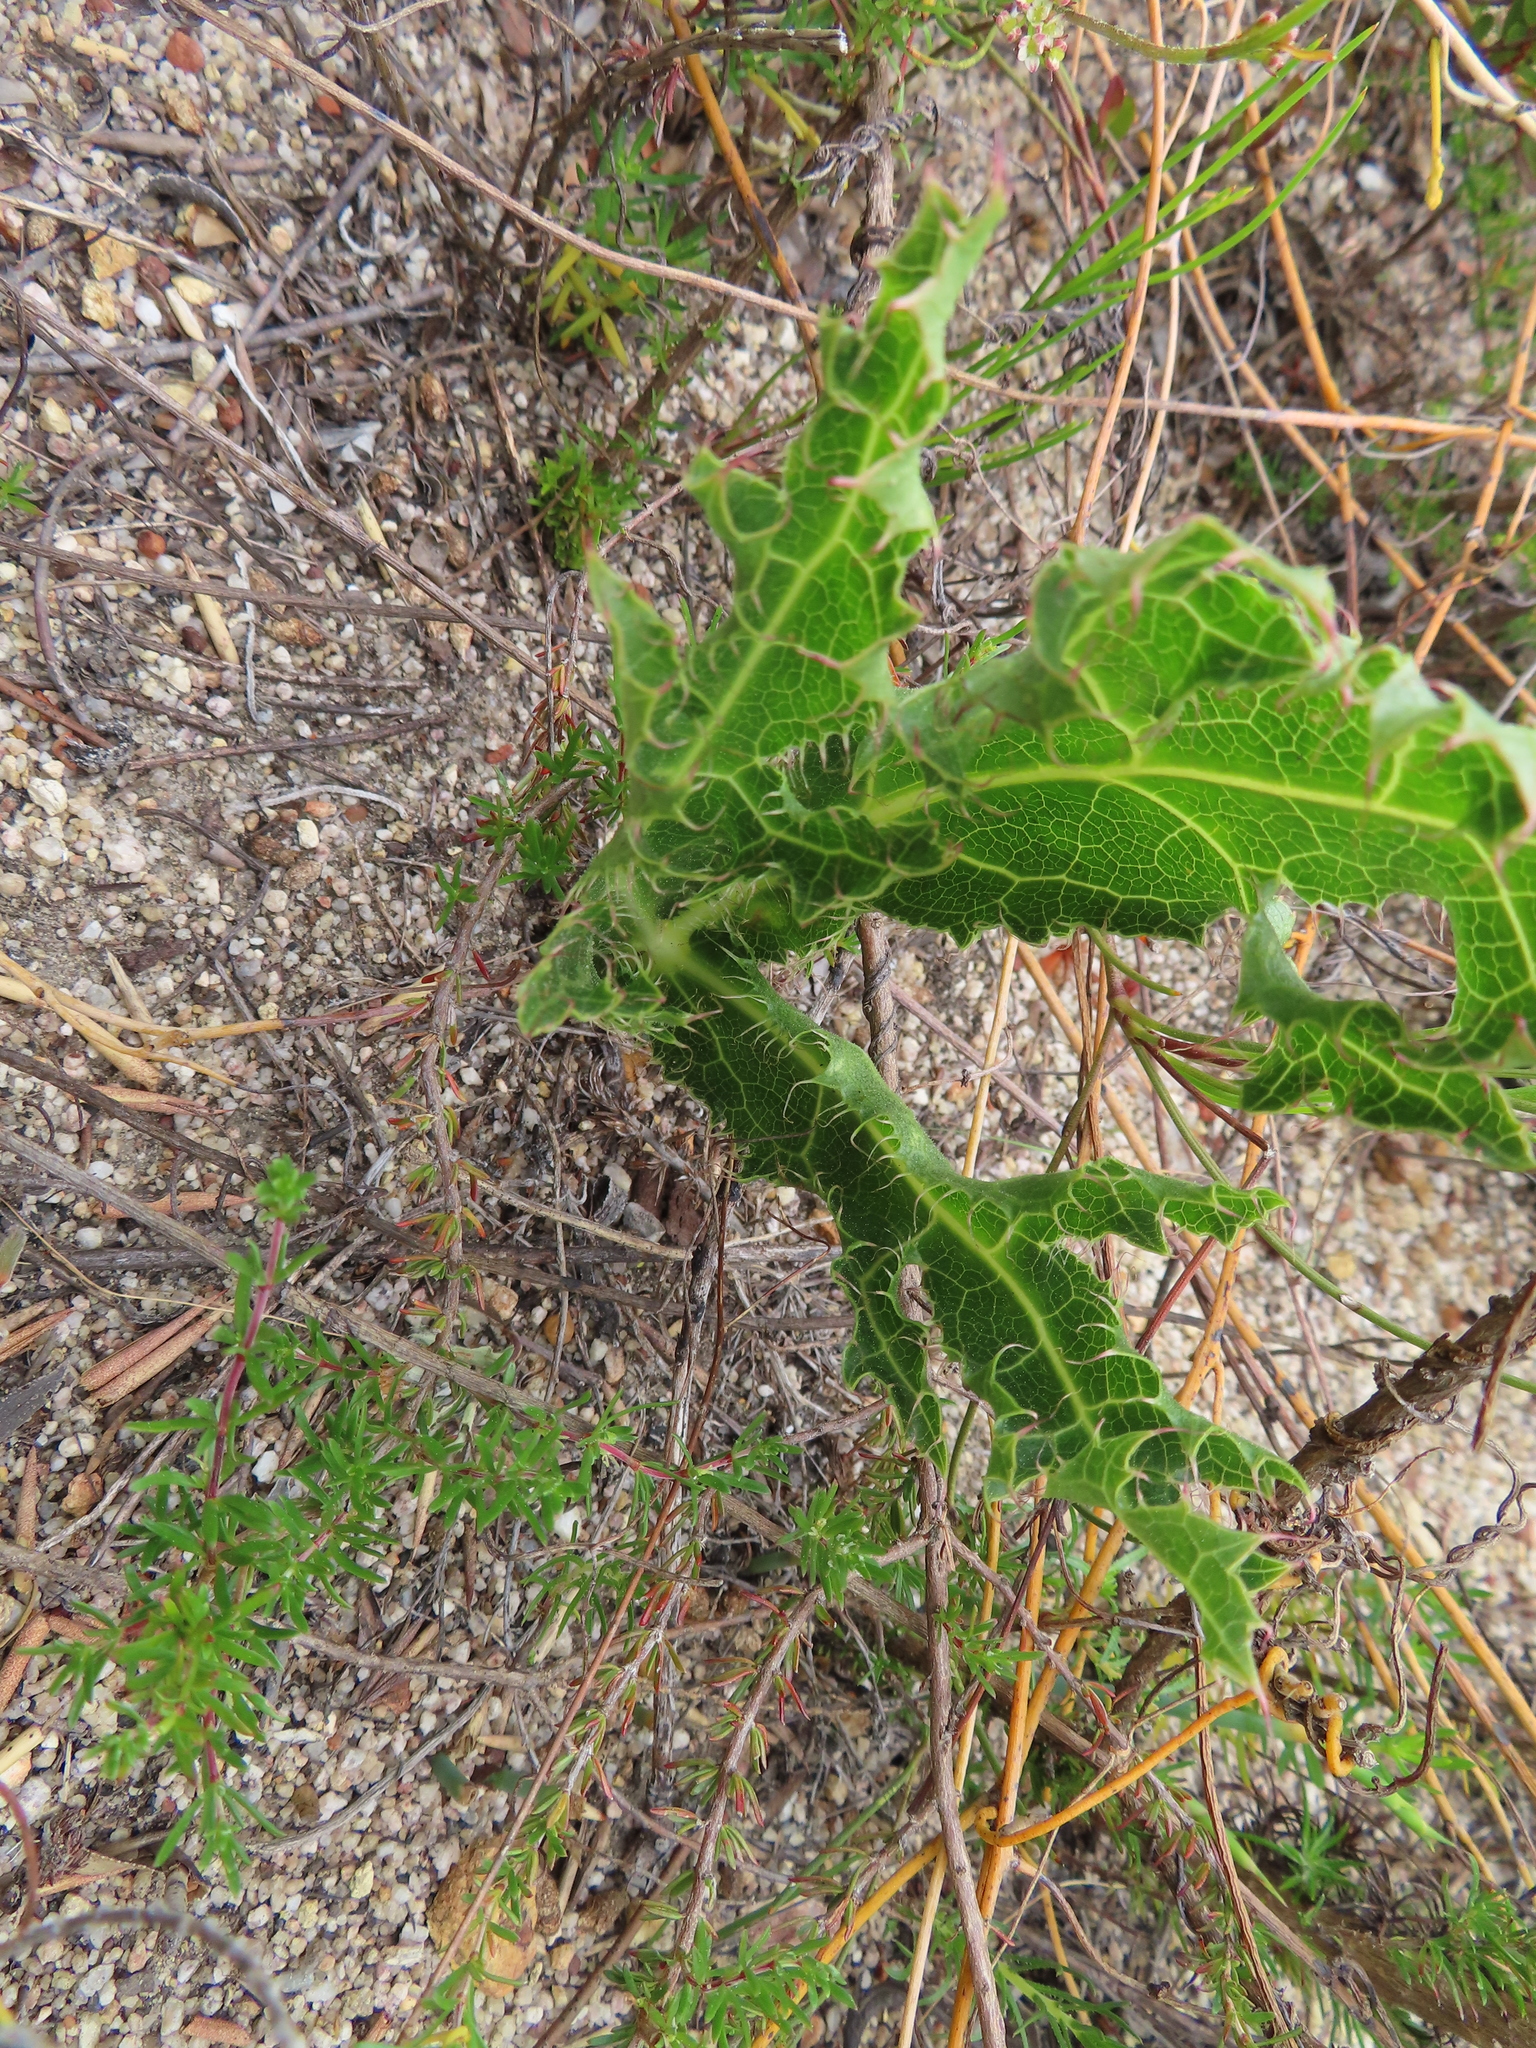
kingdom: Plantae
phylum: Tracheophyta
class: Magnoliopsida
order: Apiales
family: Apiaceae
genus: Lichtensteinia
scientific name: Lichtensteinia lacera
